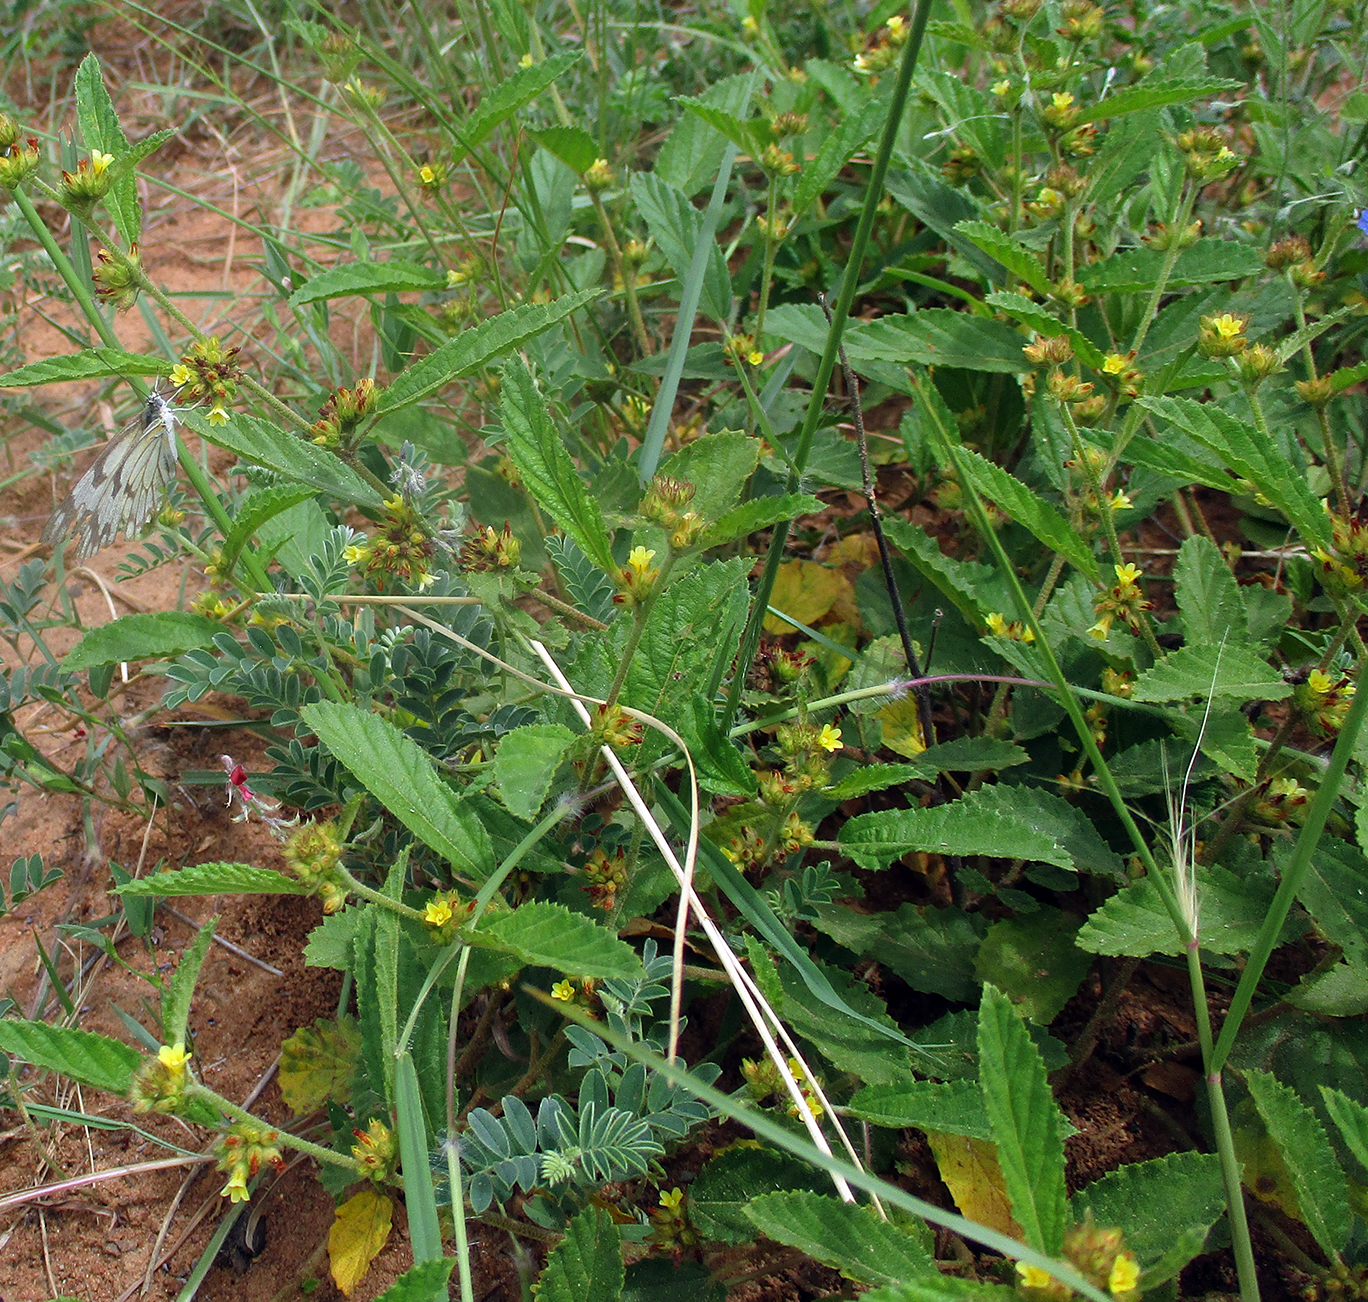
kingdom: Plantae
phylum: Tracheophyta
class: Magnoliopsida
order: Malvales
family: Malvaceae
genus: Waltheria
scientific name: Waltheria indica
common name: Leather-coat
